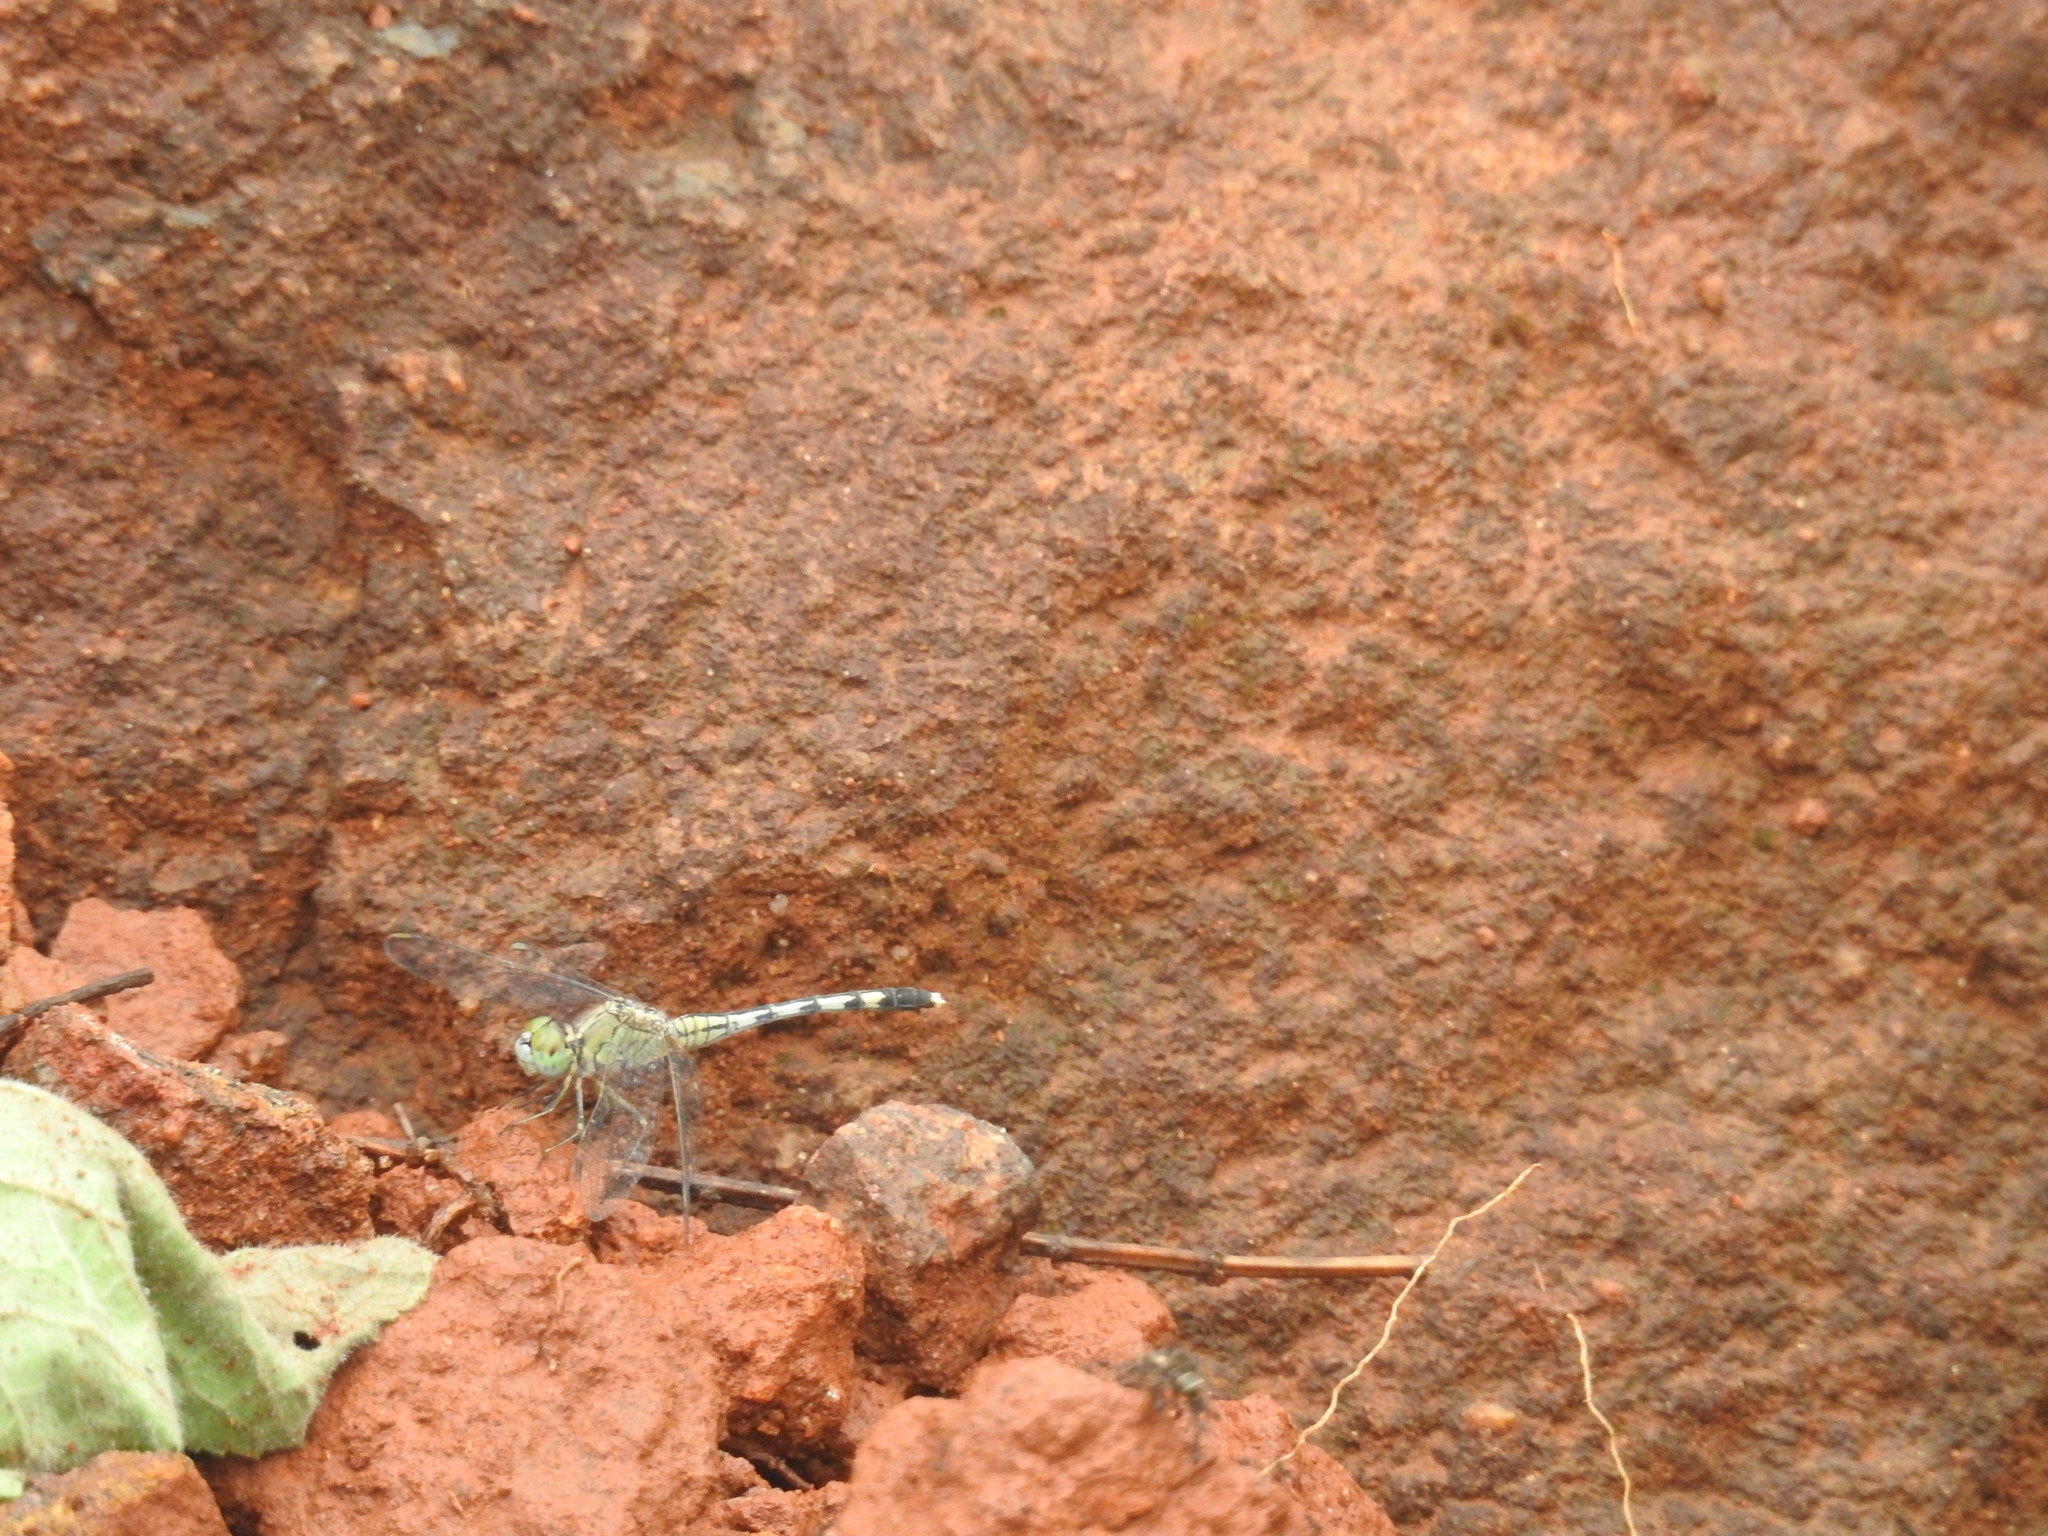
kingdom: Animalia
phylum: Arthropoda
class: Insecta
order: Odonata
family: Libellulidae
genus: Diplacodes
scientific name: Diplacodes trivialis
